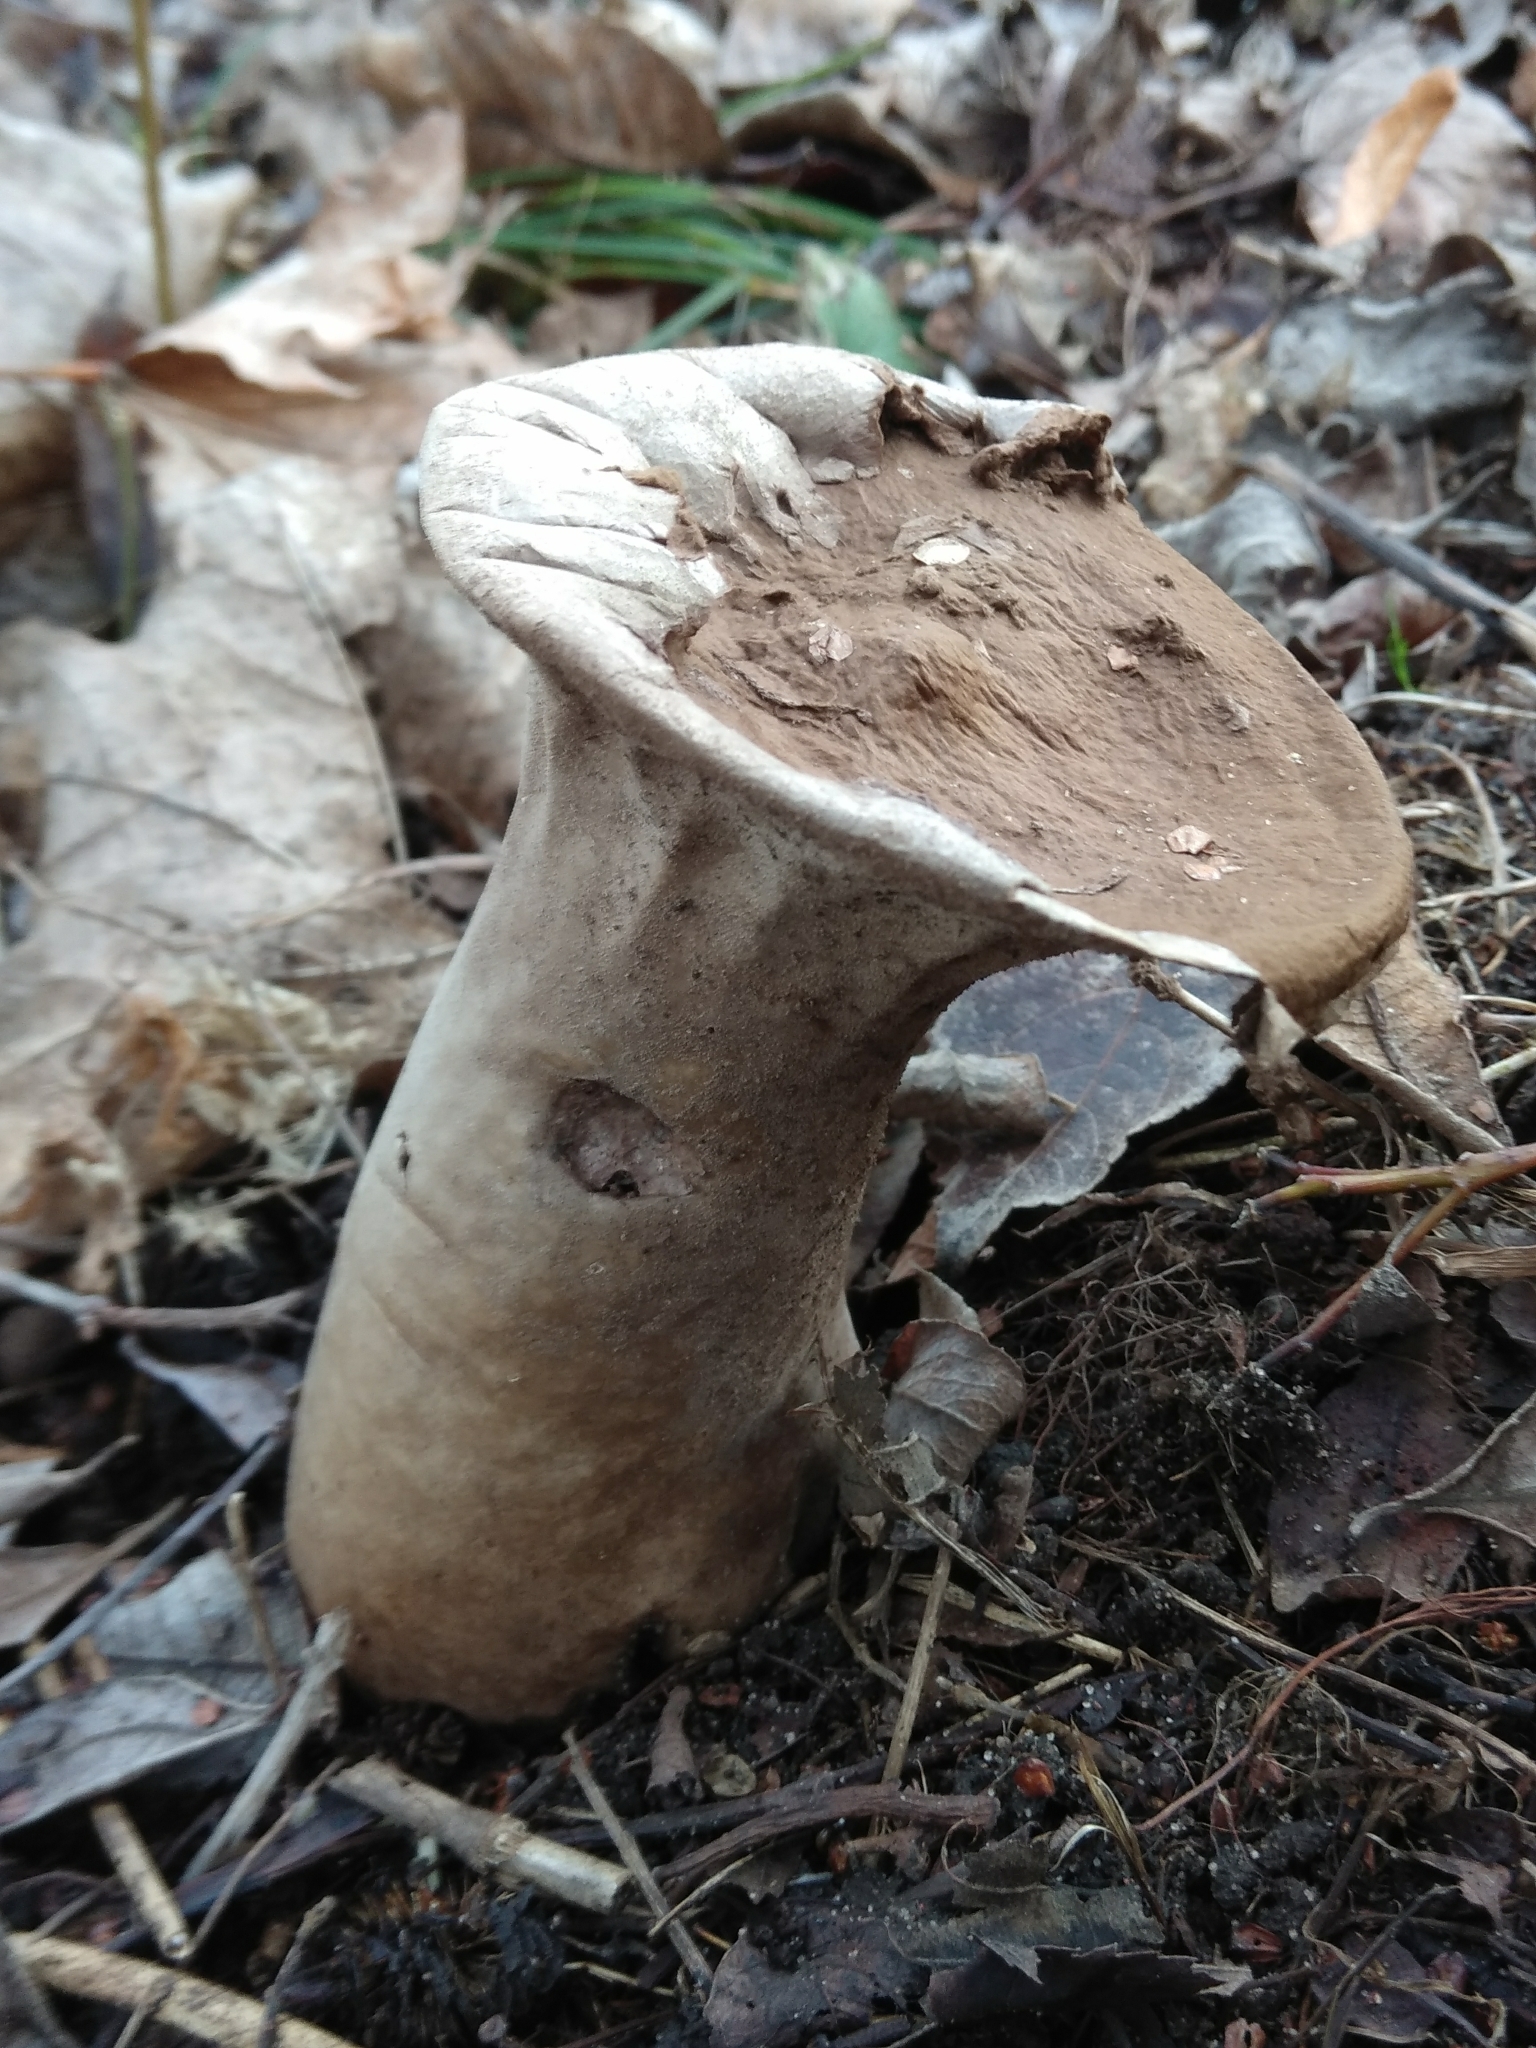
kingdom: Fungi
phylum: Basidiomycota
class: Agaricomycetes
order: Agaricales
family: Lycoperdaceae
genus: Lycoperdon
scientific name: Lycoperdon excipuliforme
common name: Pestle puffball
